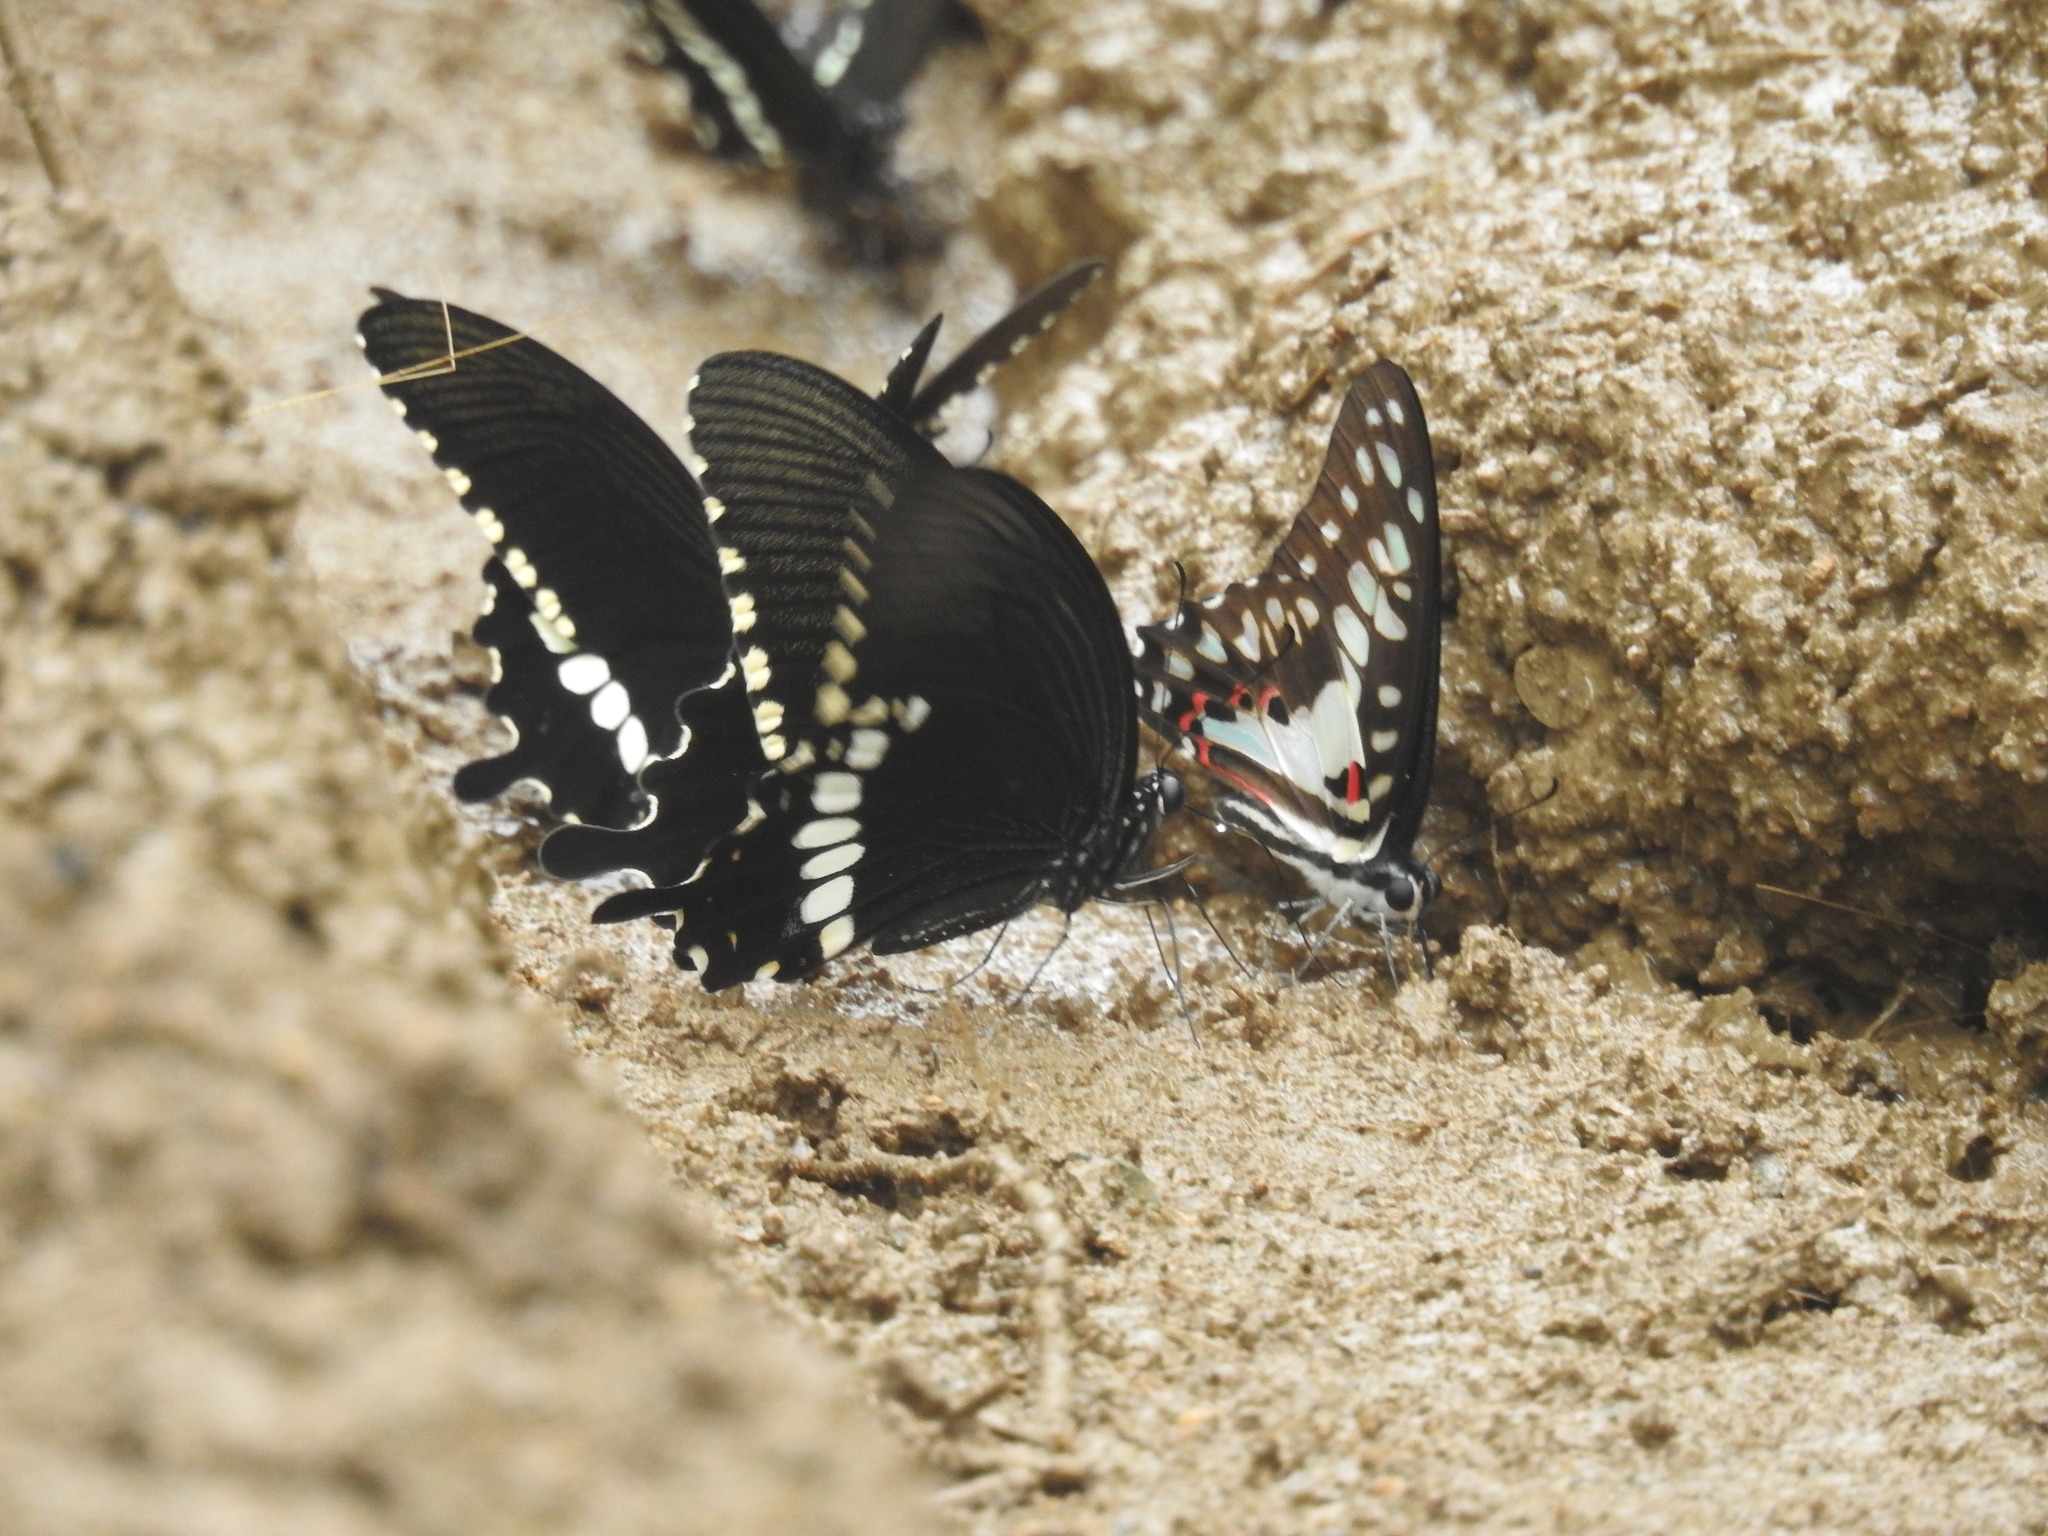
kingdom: Animalia
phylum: Arthropoda
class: Insecta
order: Lepidoptera
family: Papilionidae
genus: Papilio
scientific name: Papilio polytes
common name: Common mormon
